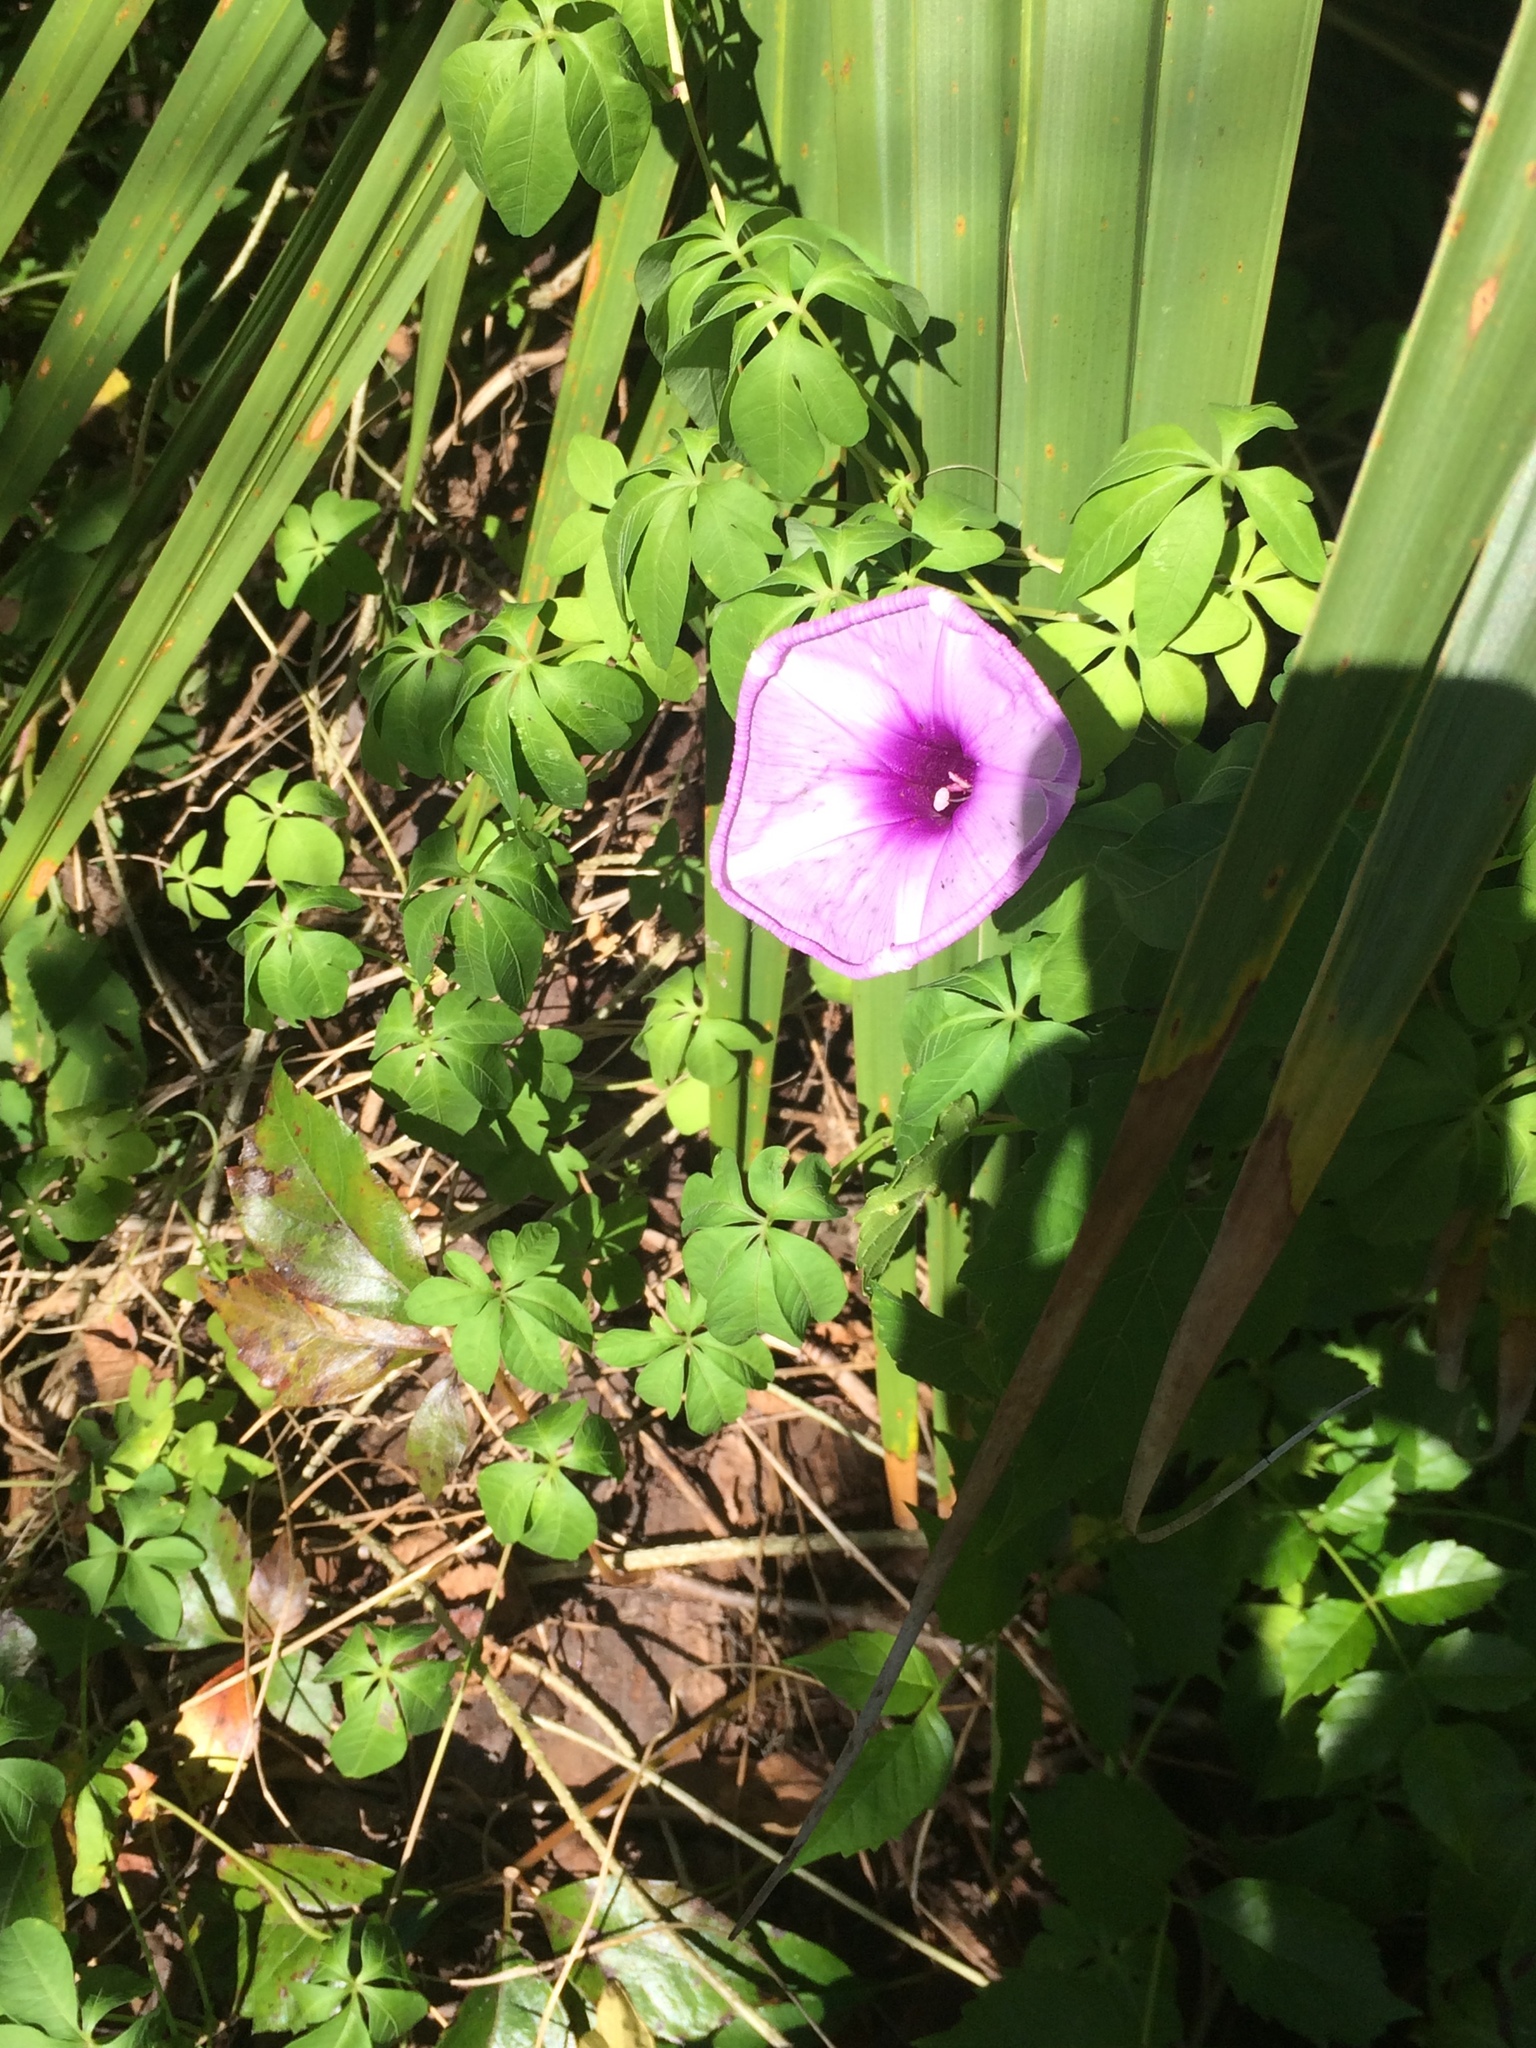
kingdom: Plantae
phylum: Tracheophyta
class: Magnoliopsida
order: Solanales
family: Convolvulaceae
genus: Ipomoea
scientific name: Ipomoea cairica
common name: Mile a minute vine
